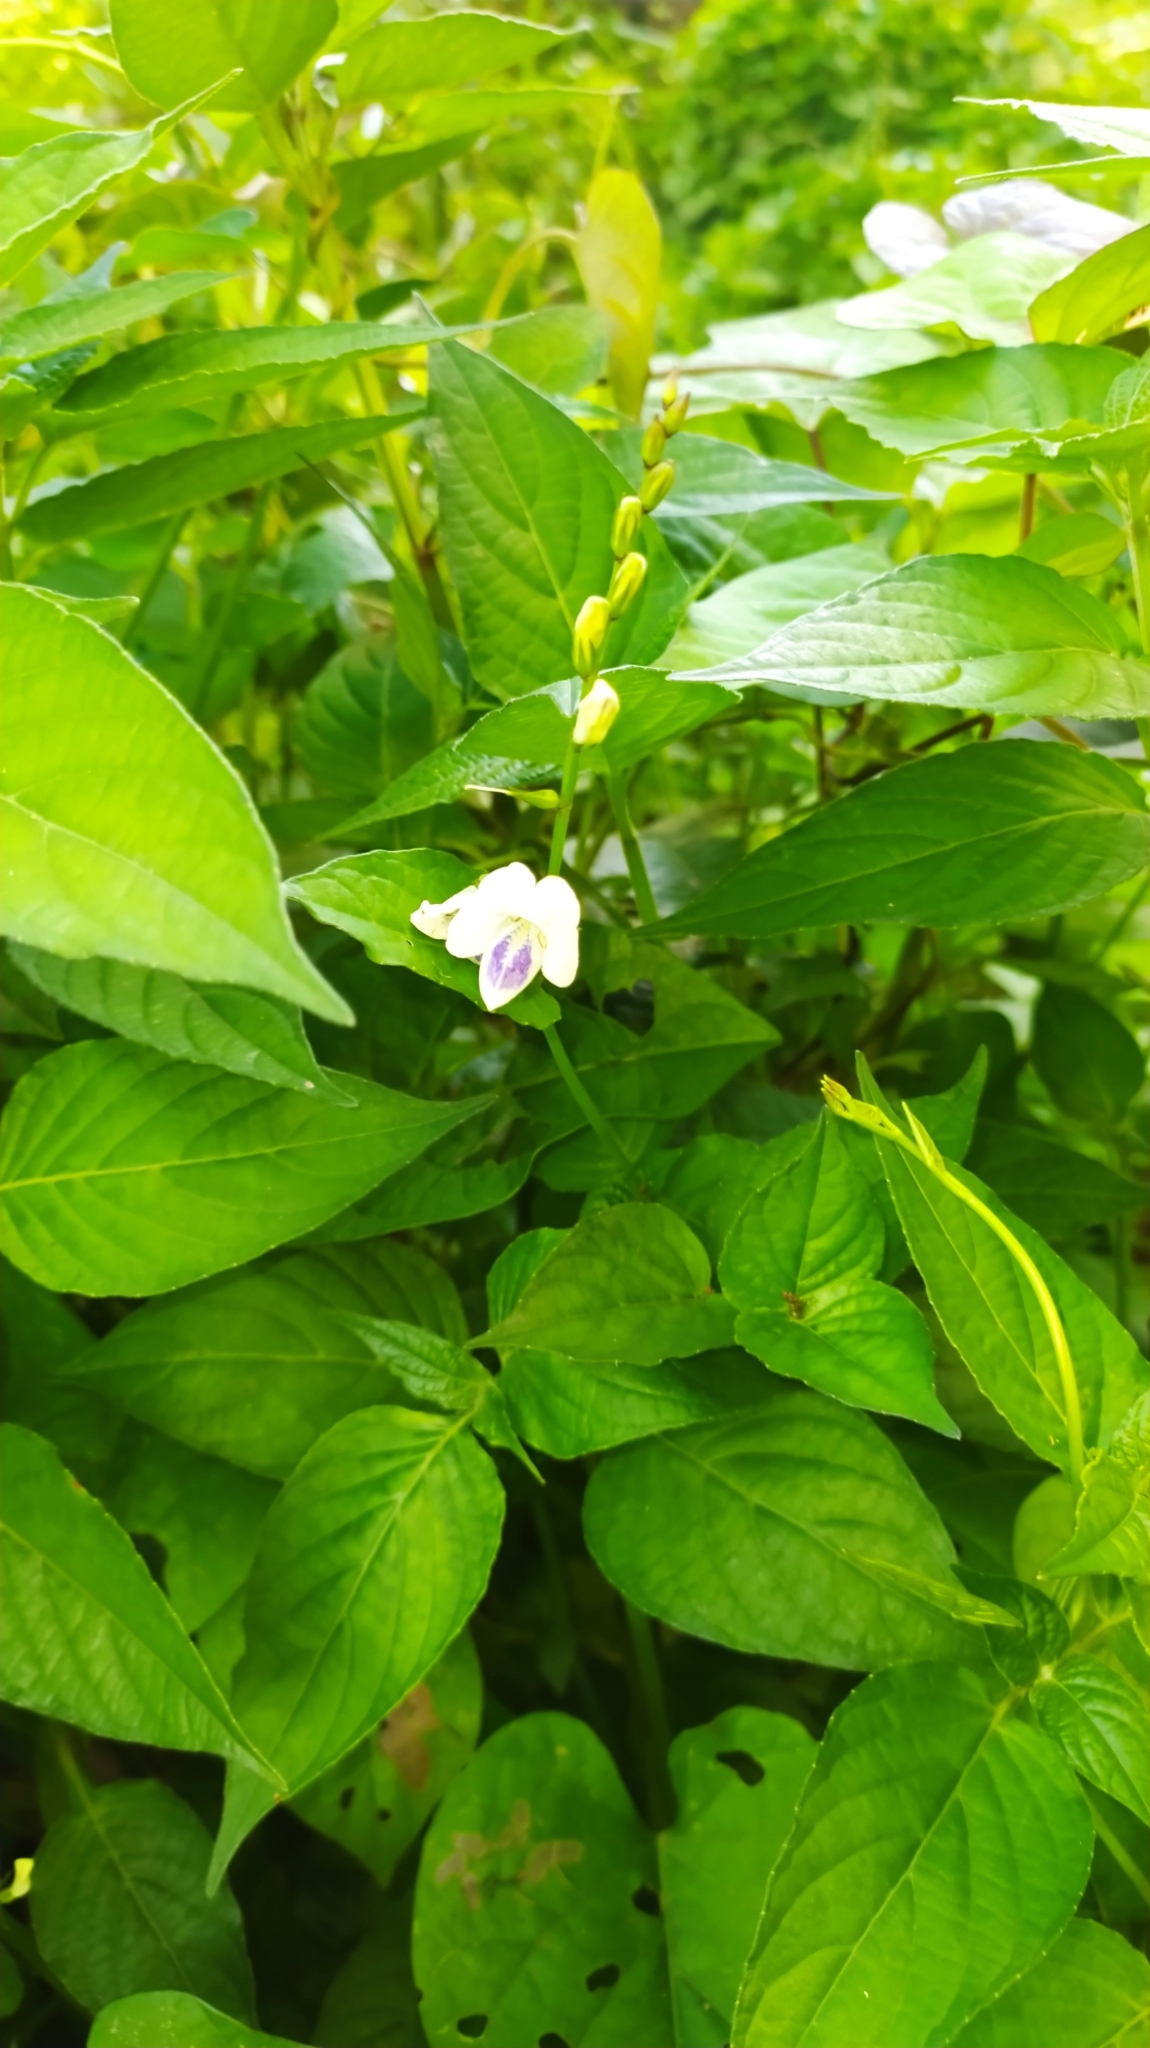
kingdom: Plantae
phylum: Tracheophyta
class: Magnoliopsida
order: Lamiales
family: Acanthaceae
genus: Asystasia
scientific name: Asystasia intrusa
